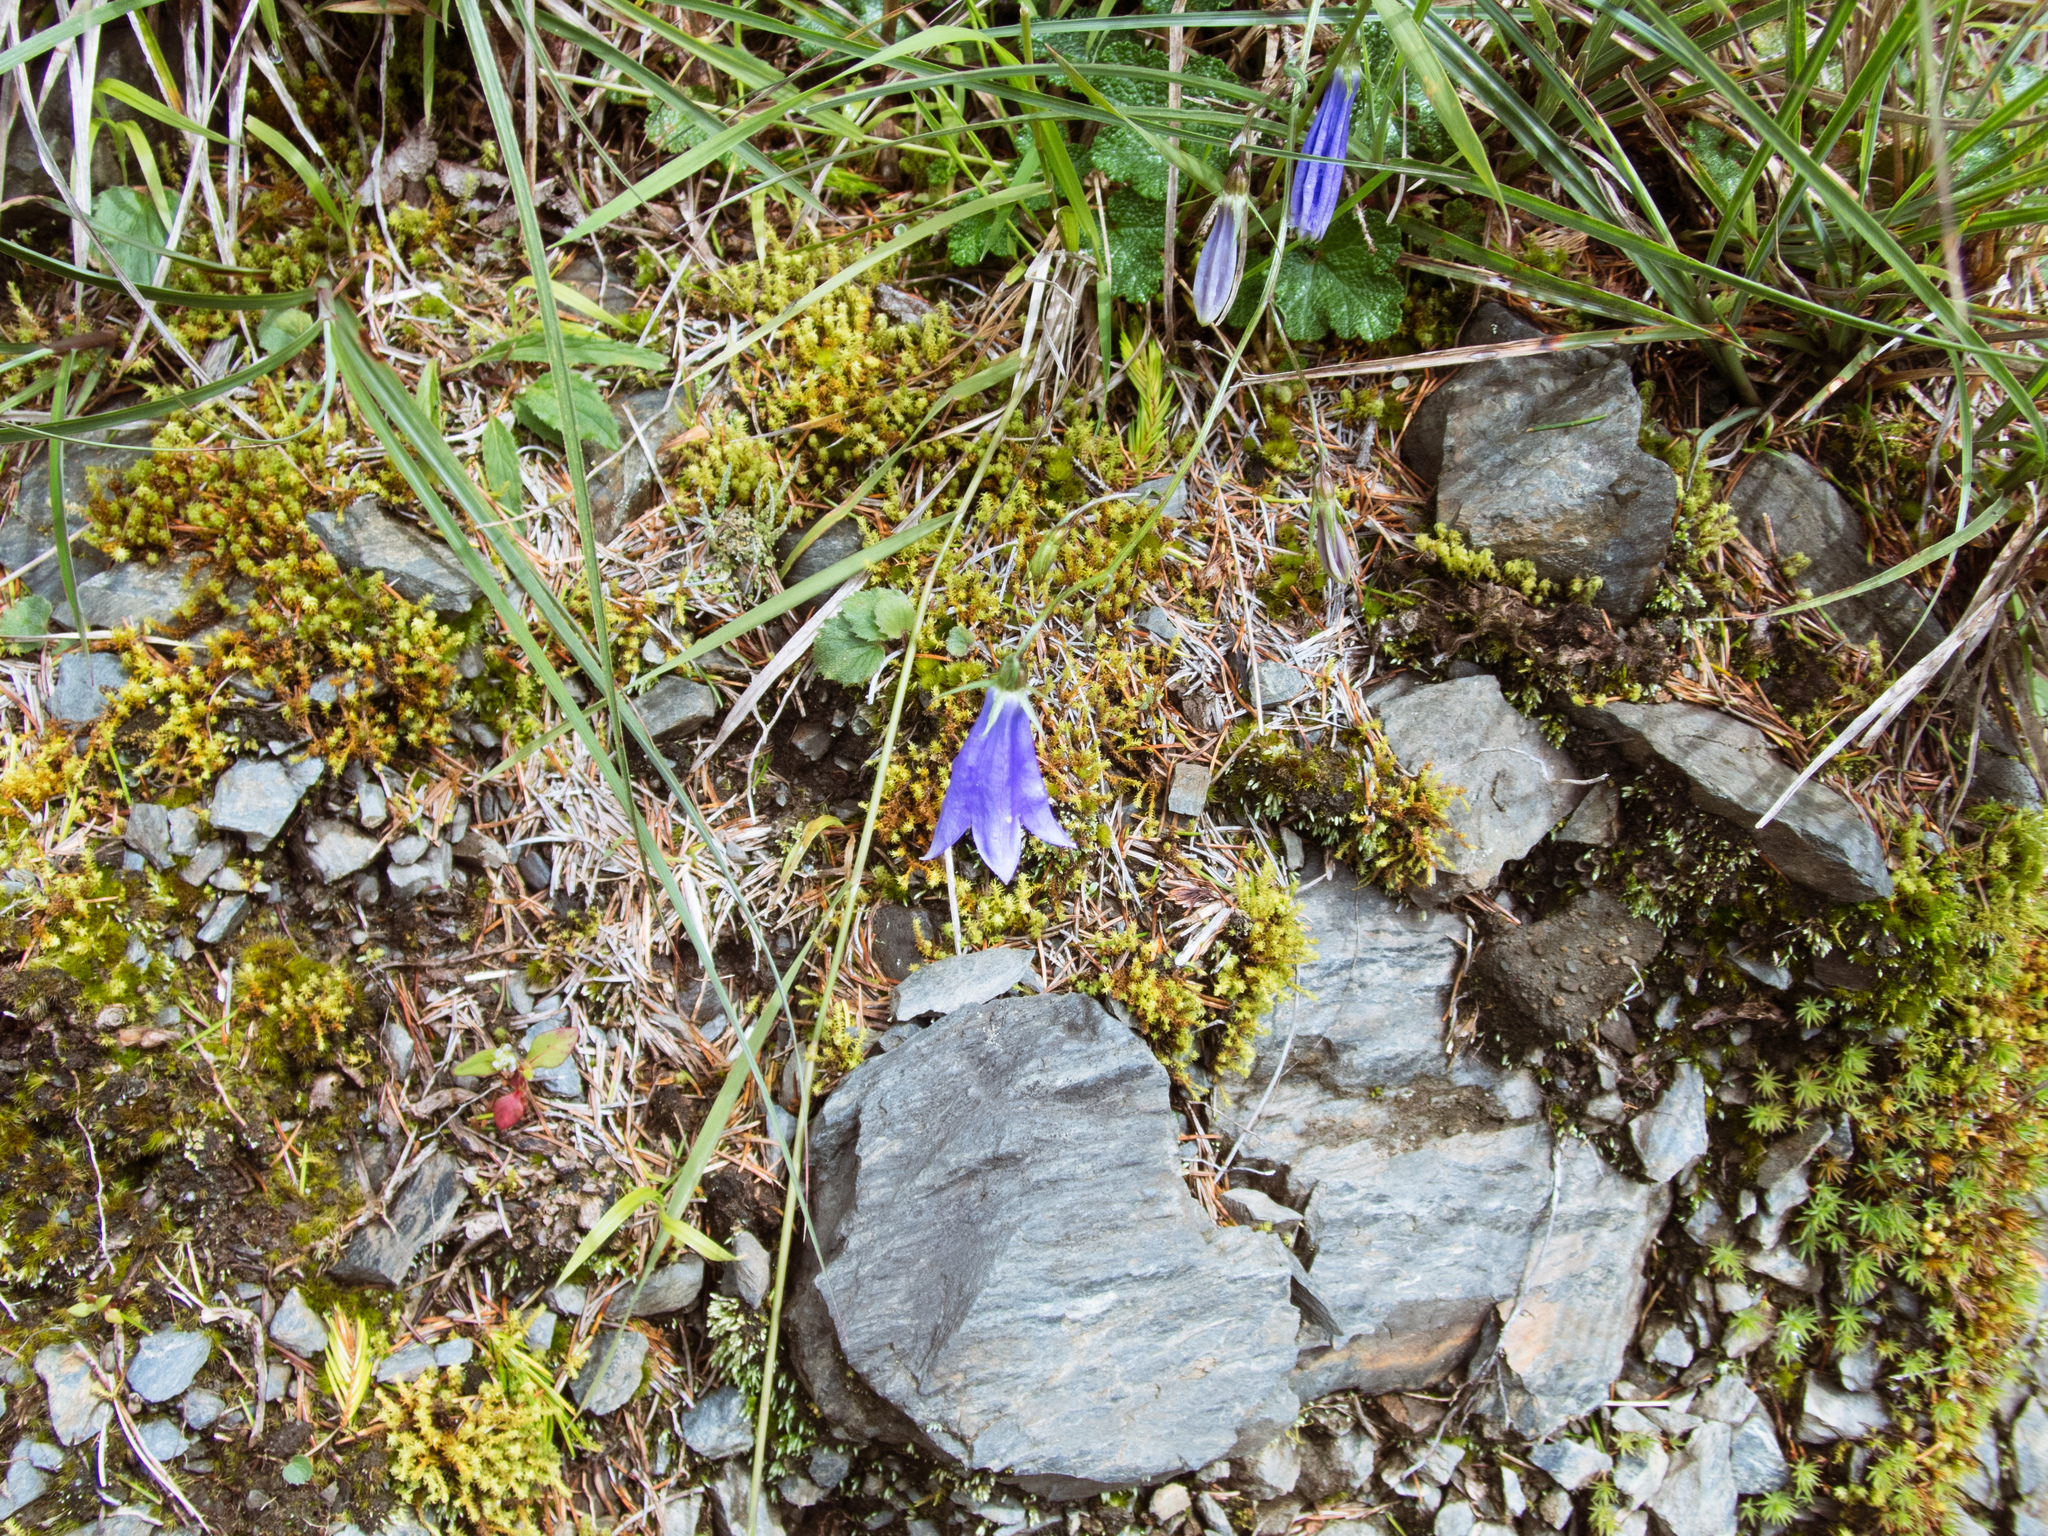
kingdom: Plantae
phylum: Tracheophyta
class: Magnoliopsida
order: Asterales
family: Campanulaceae
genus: Adenophora
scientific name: Adenophora morrisonensis
